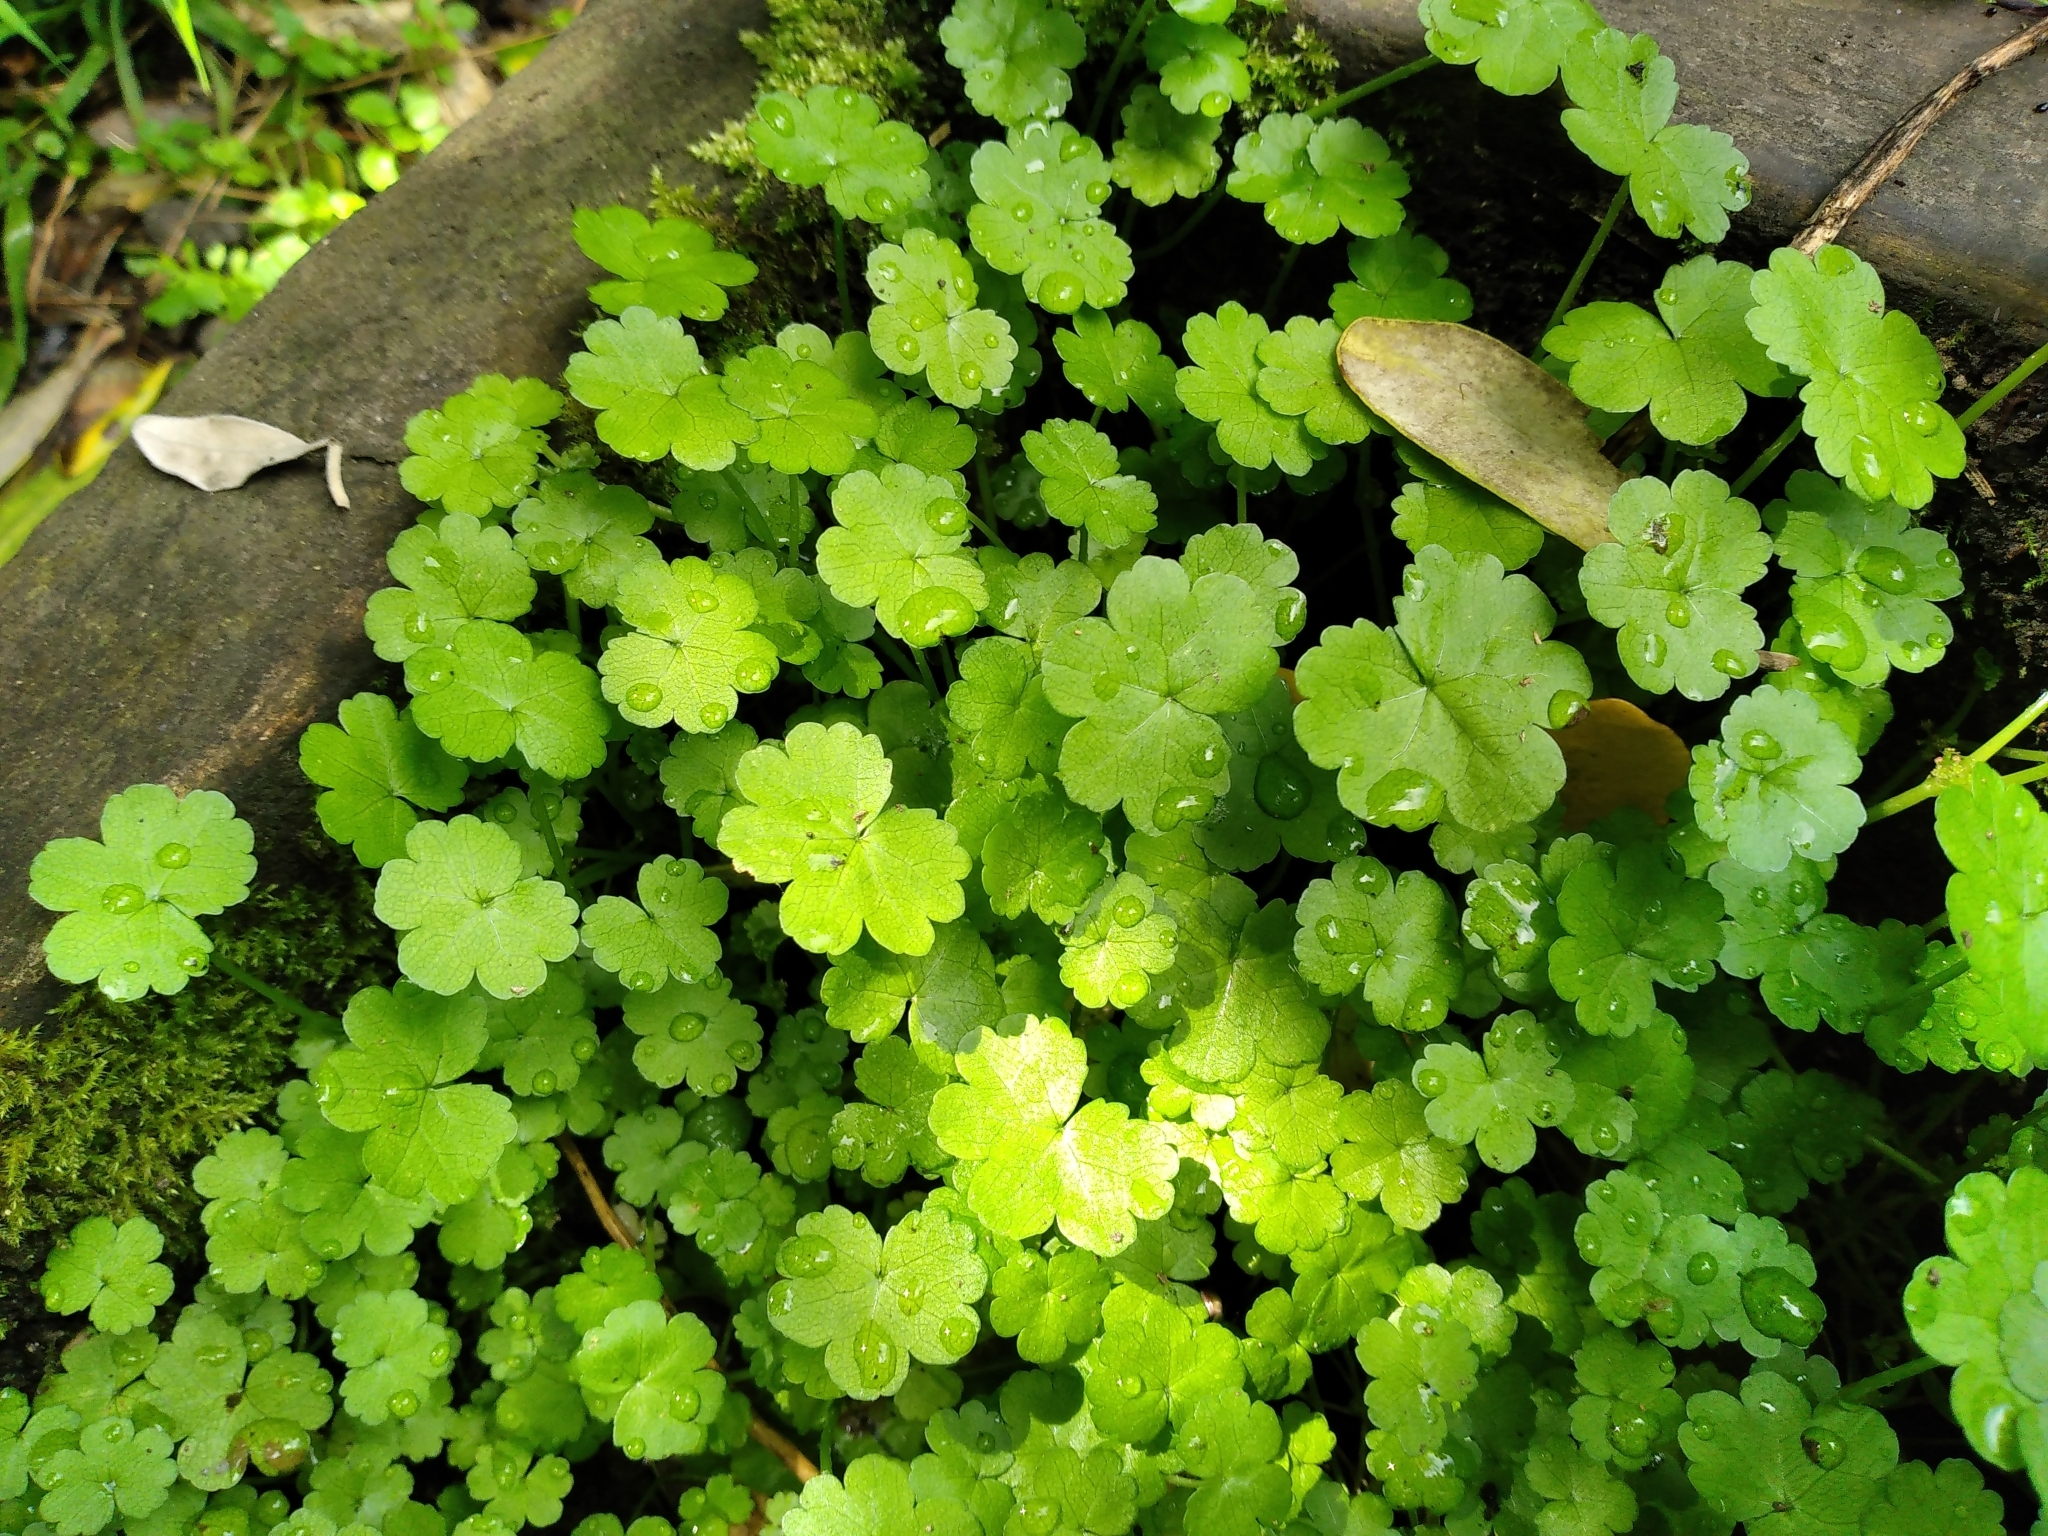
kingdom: Plantae
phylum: Tracheophyta
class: Magnoliopsida
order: Apiales
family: Araliaceae
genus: Hydrocotyle
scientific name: Hydrocotyle heteromeria
